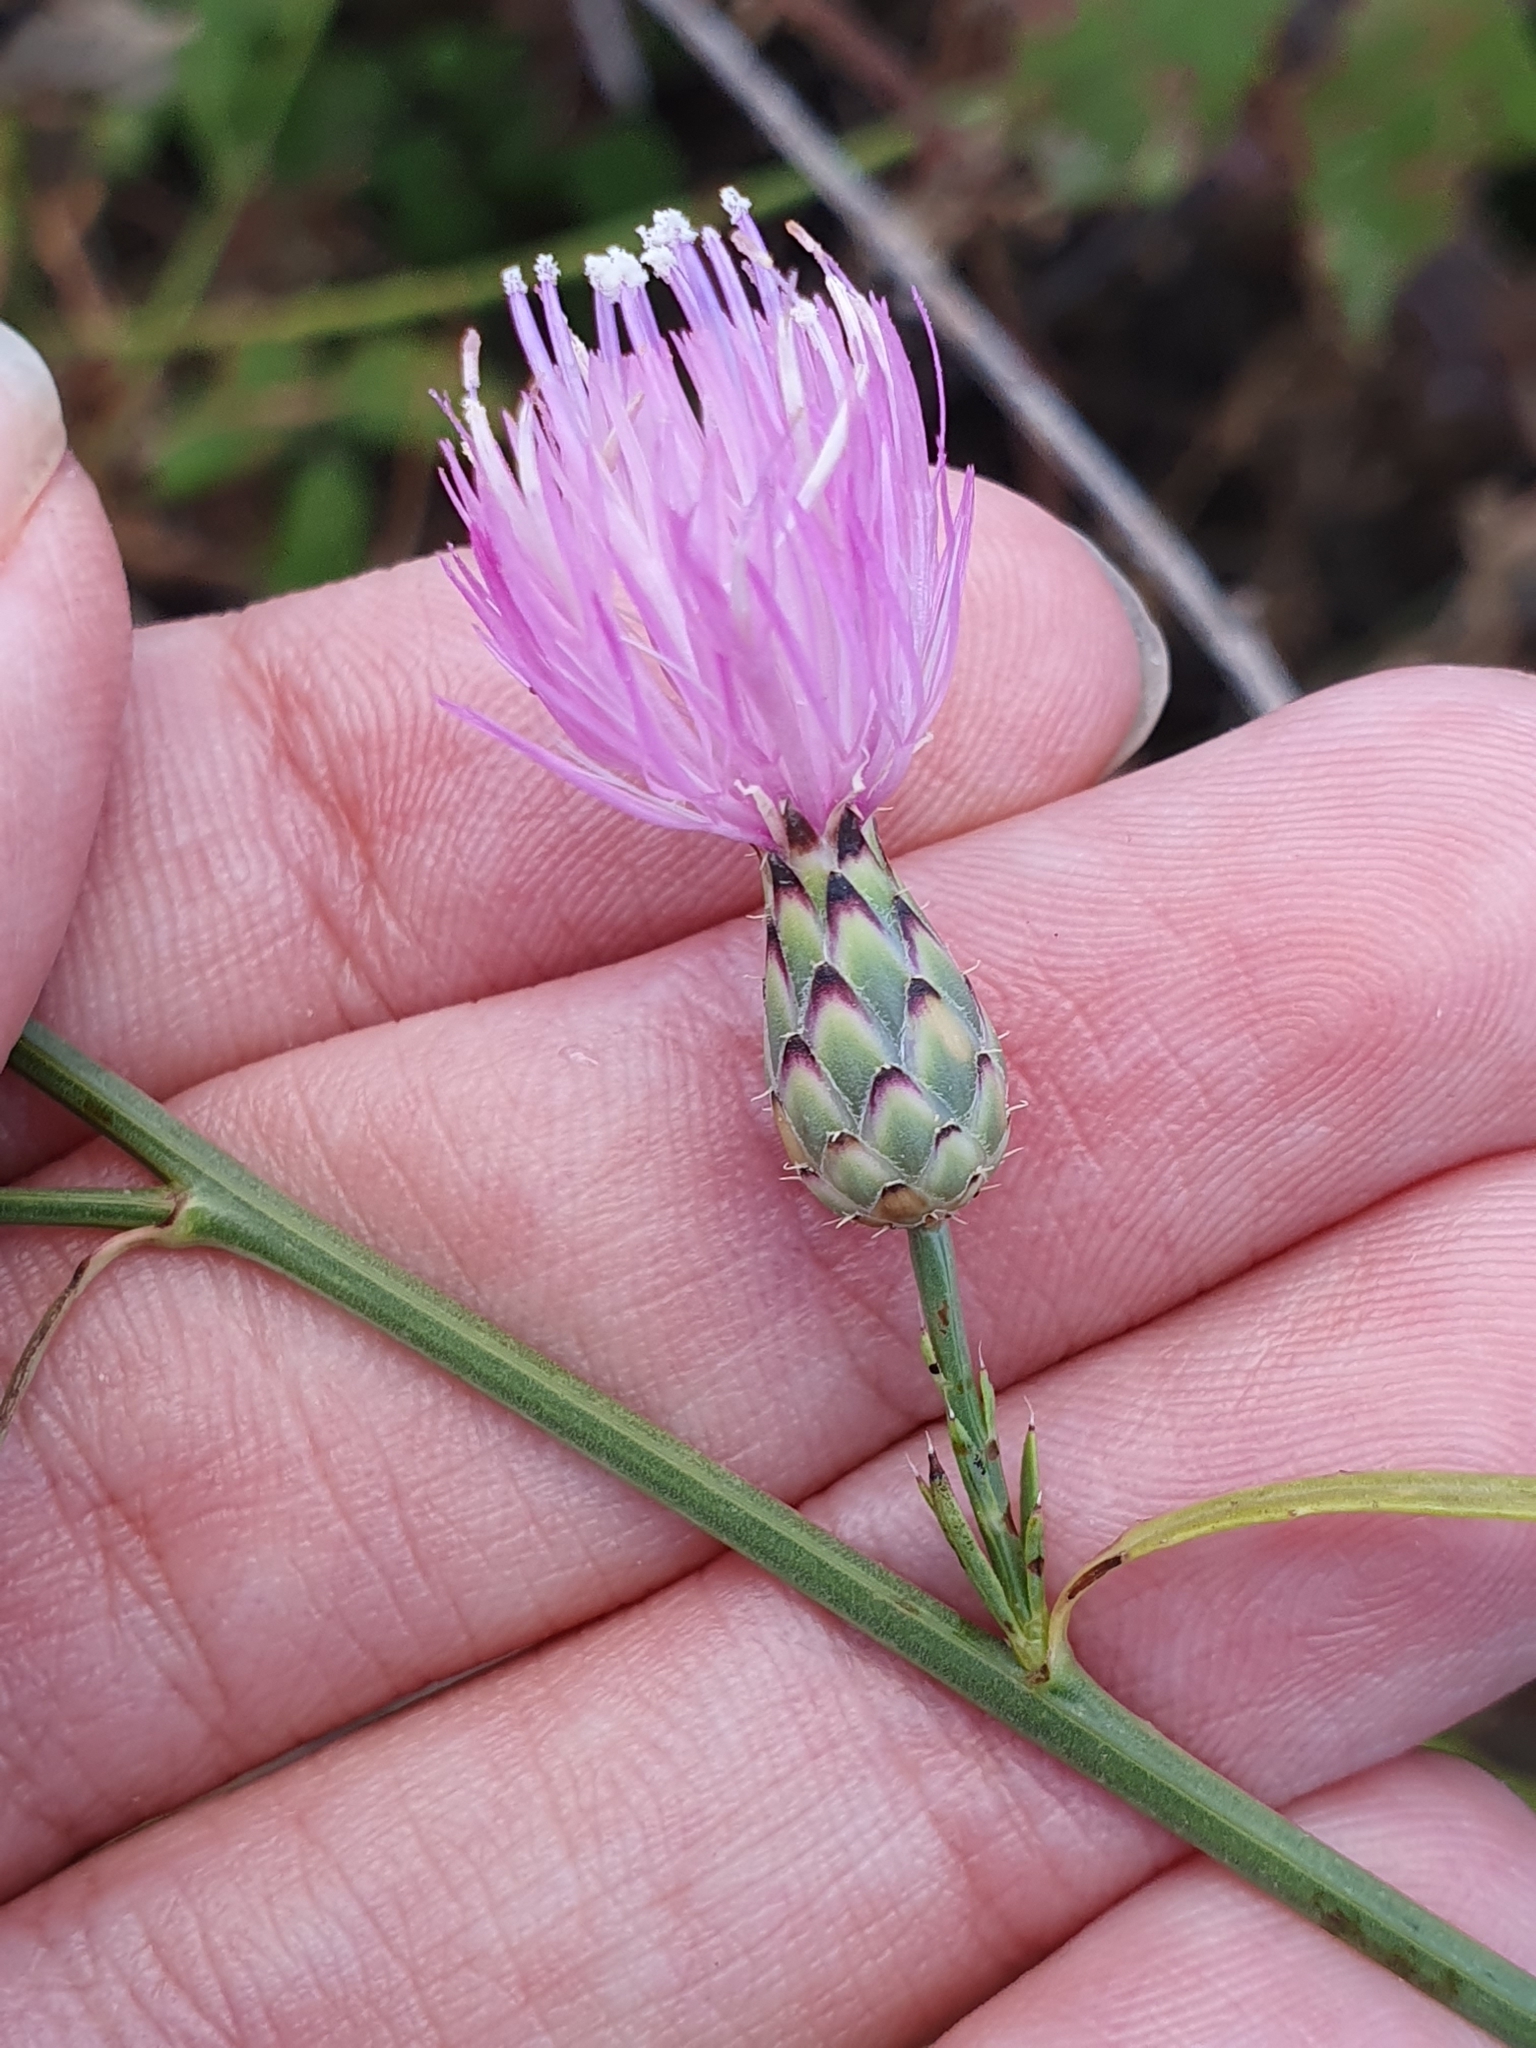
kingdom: Plantae
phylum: Tracheophyta
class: Magnoliopsida
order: Asterales
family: Asteraceae
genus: Mantisalca
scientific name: Mantisalca salmantica
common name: Dagger flower
